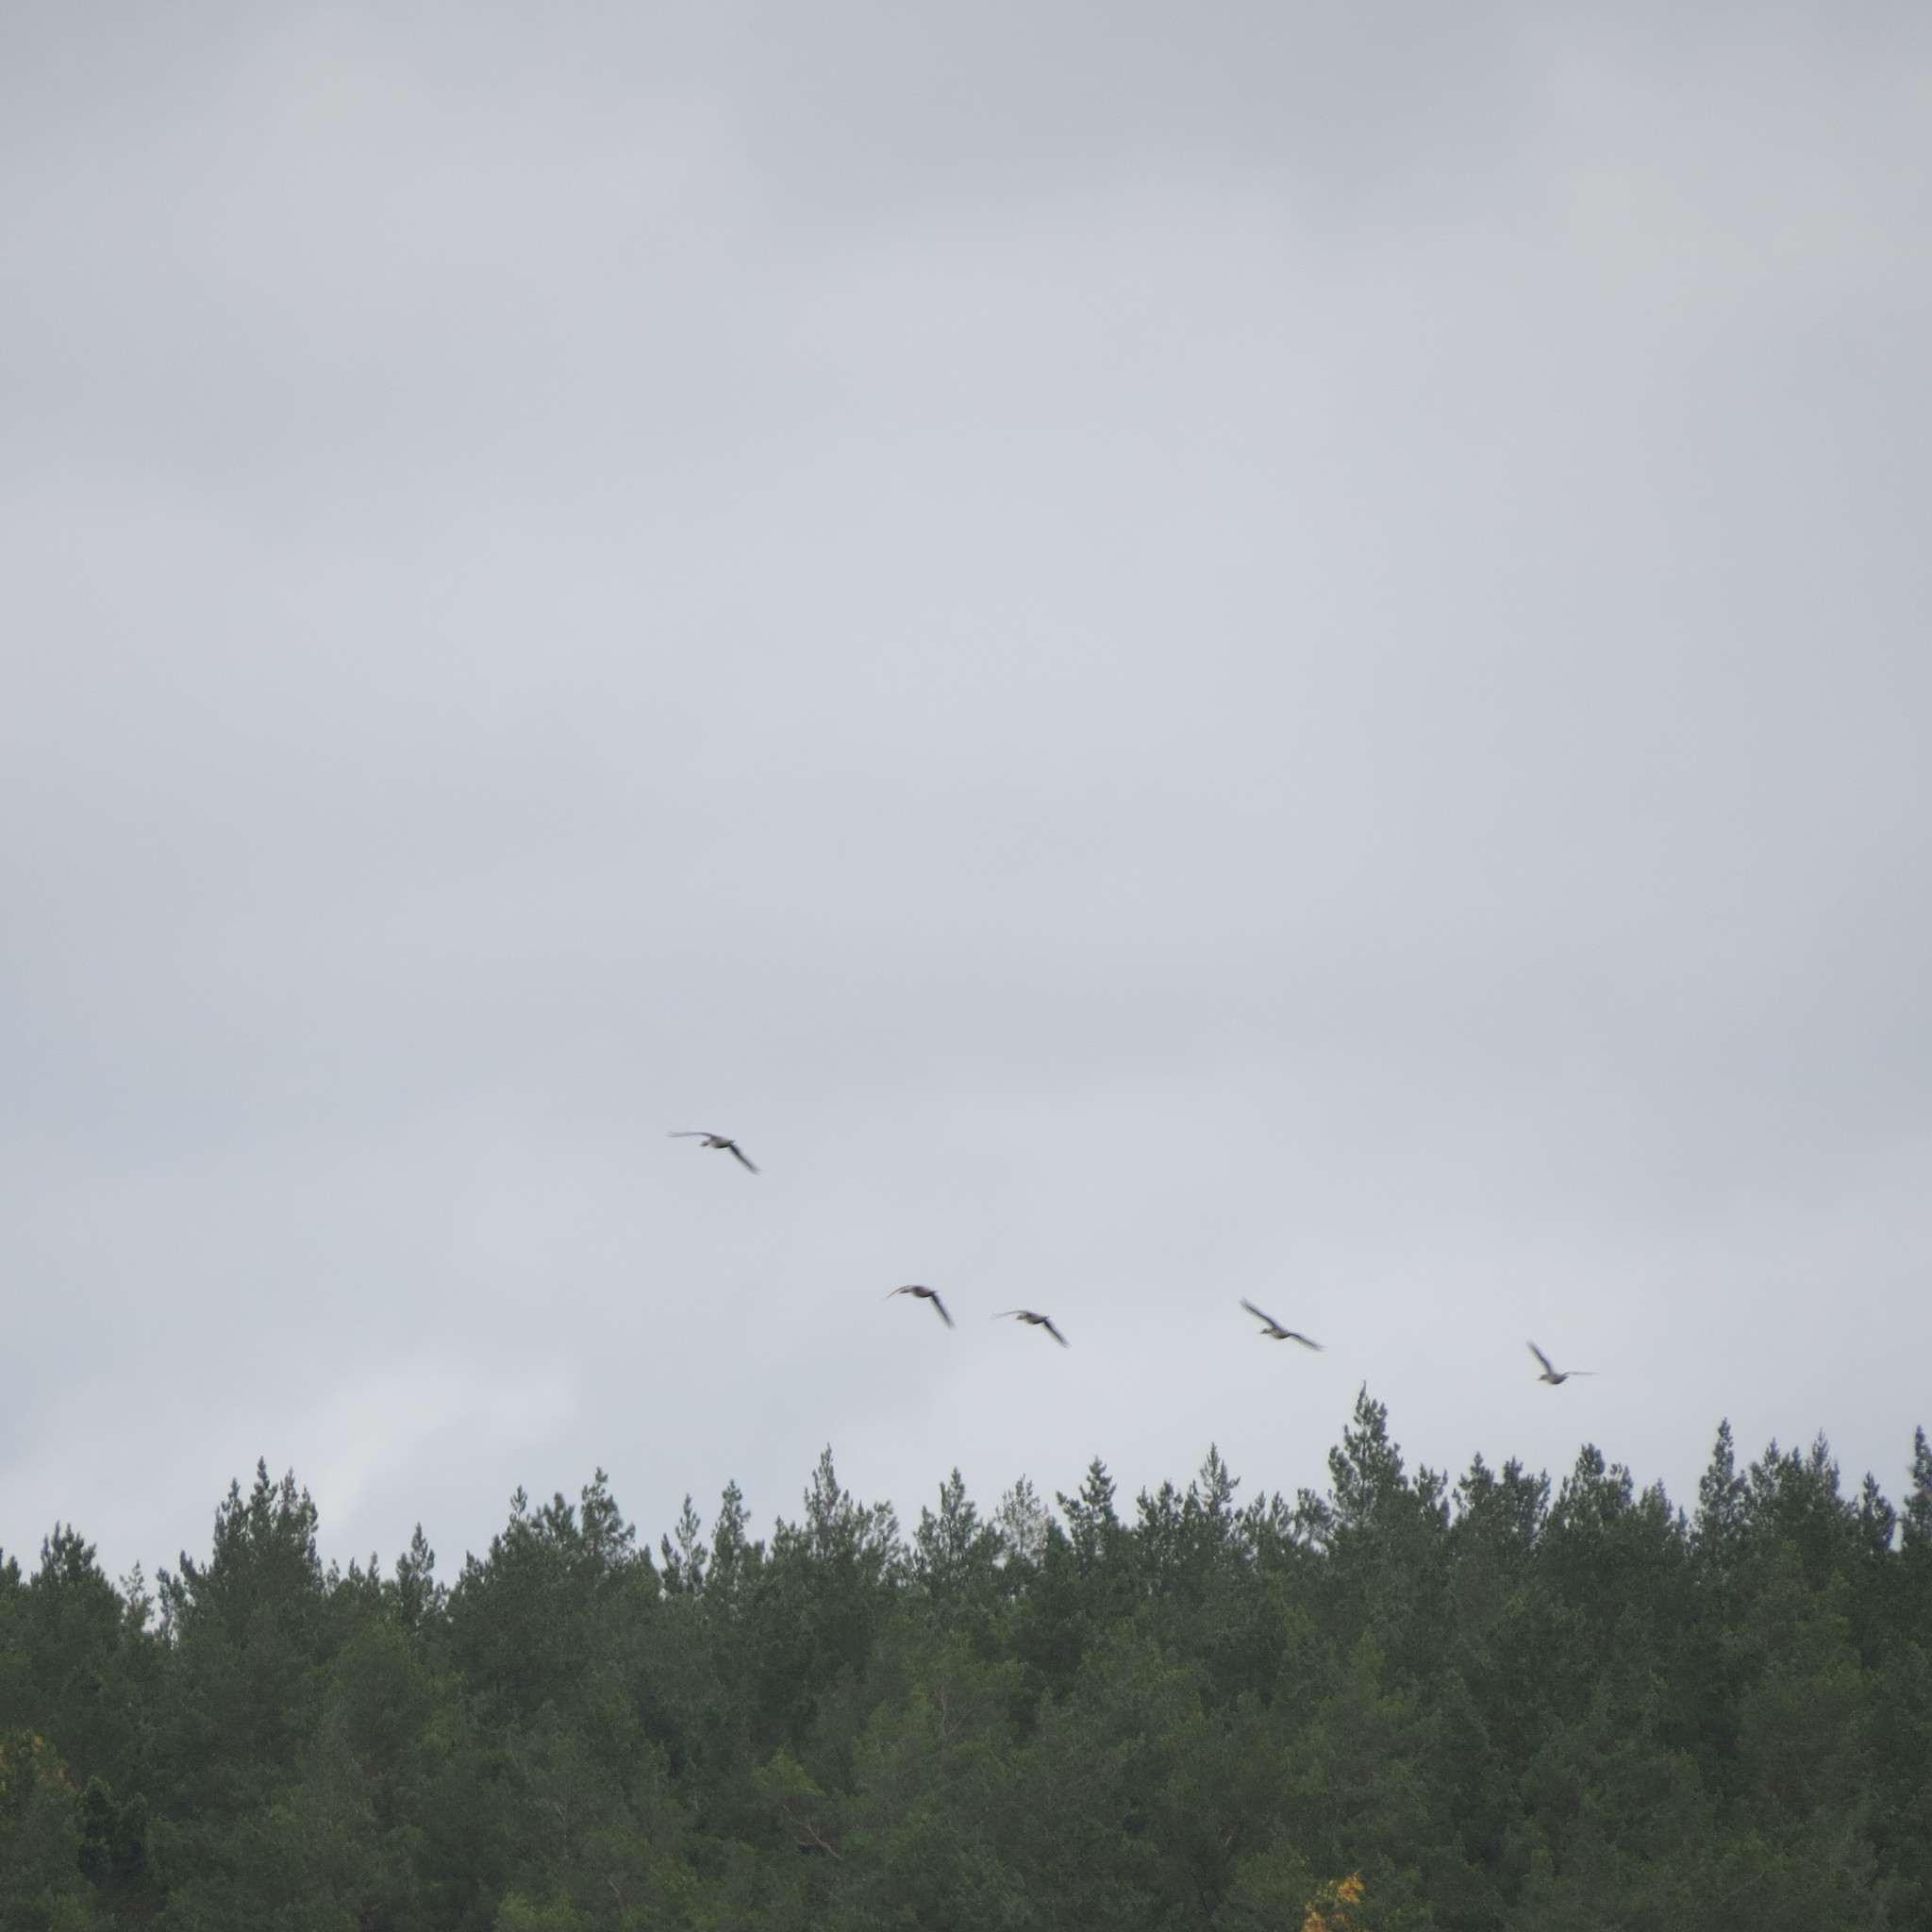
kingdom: Animalia
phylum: Chordata
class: Aves
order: Anseriformes
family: Anatidae
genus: Anas
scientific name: Anas acuta
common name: Northern pintail
